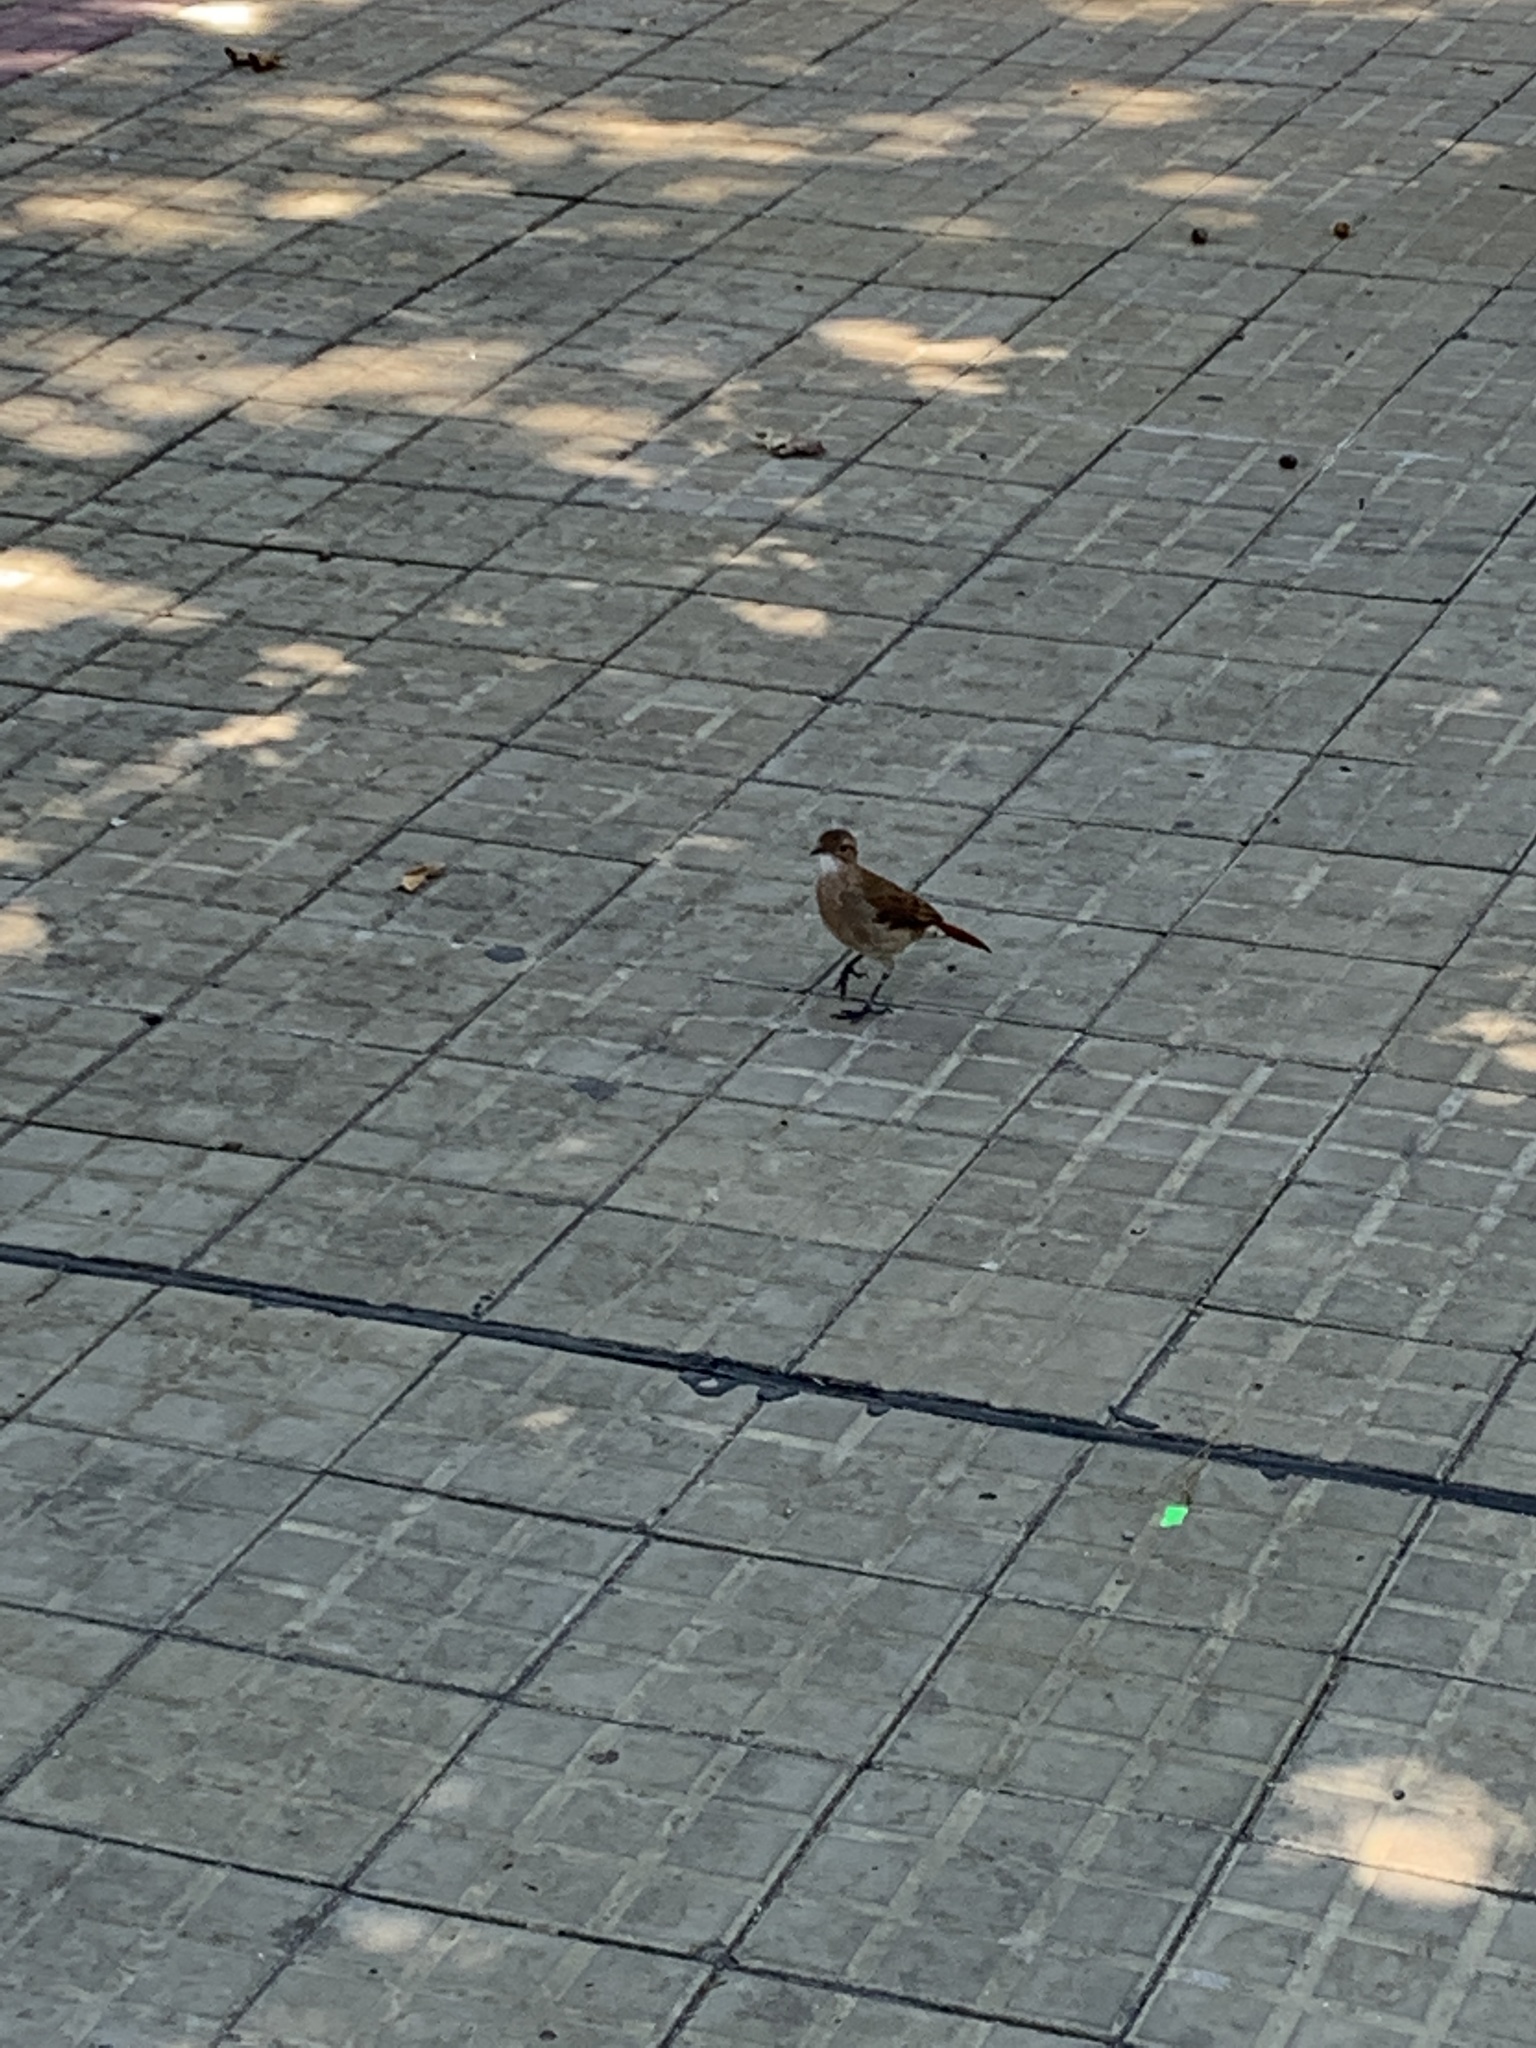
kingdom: Animalia
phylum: Chordata
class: Aves
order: Passeriformes
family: Furnariidae
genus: Furnarius
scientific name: Furnarius rufus
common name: Rufous hornero
